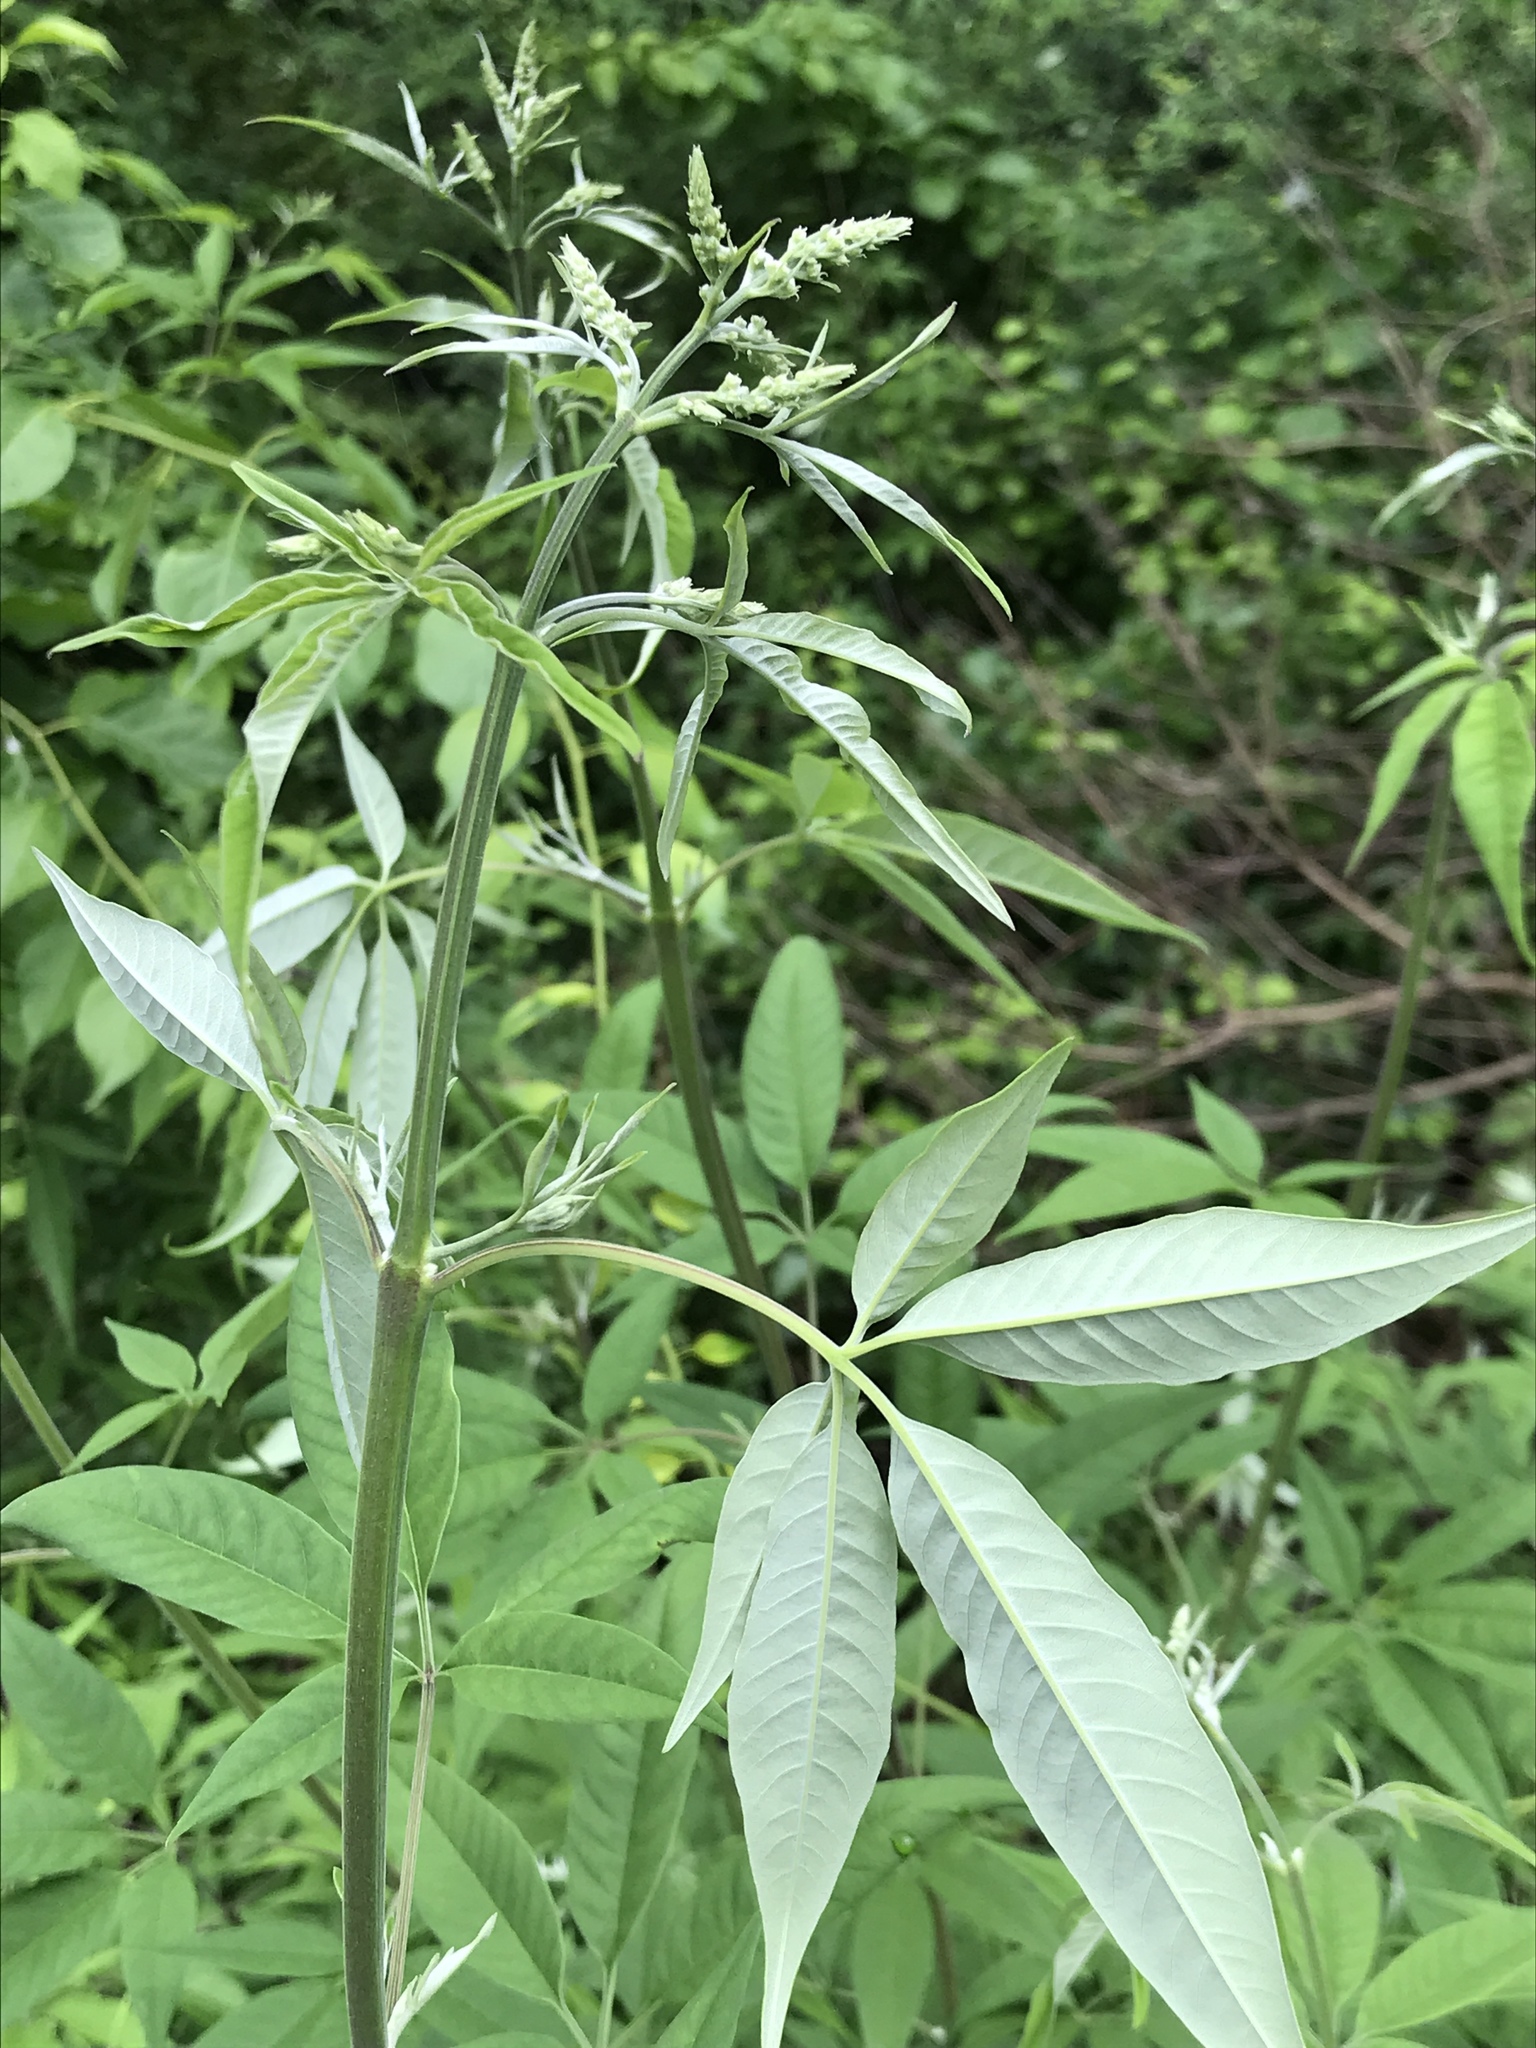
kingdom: Plantae
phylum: Tracheophyta
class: Magnoliopsida
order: Brassicales
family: Cleomaceae
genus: Tarenaya
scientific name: Tarenaya houtteana
